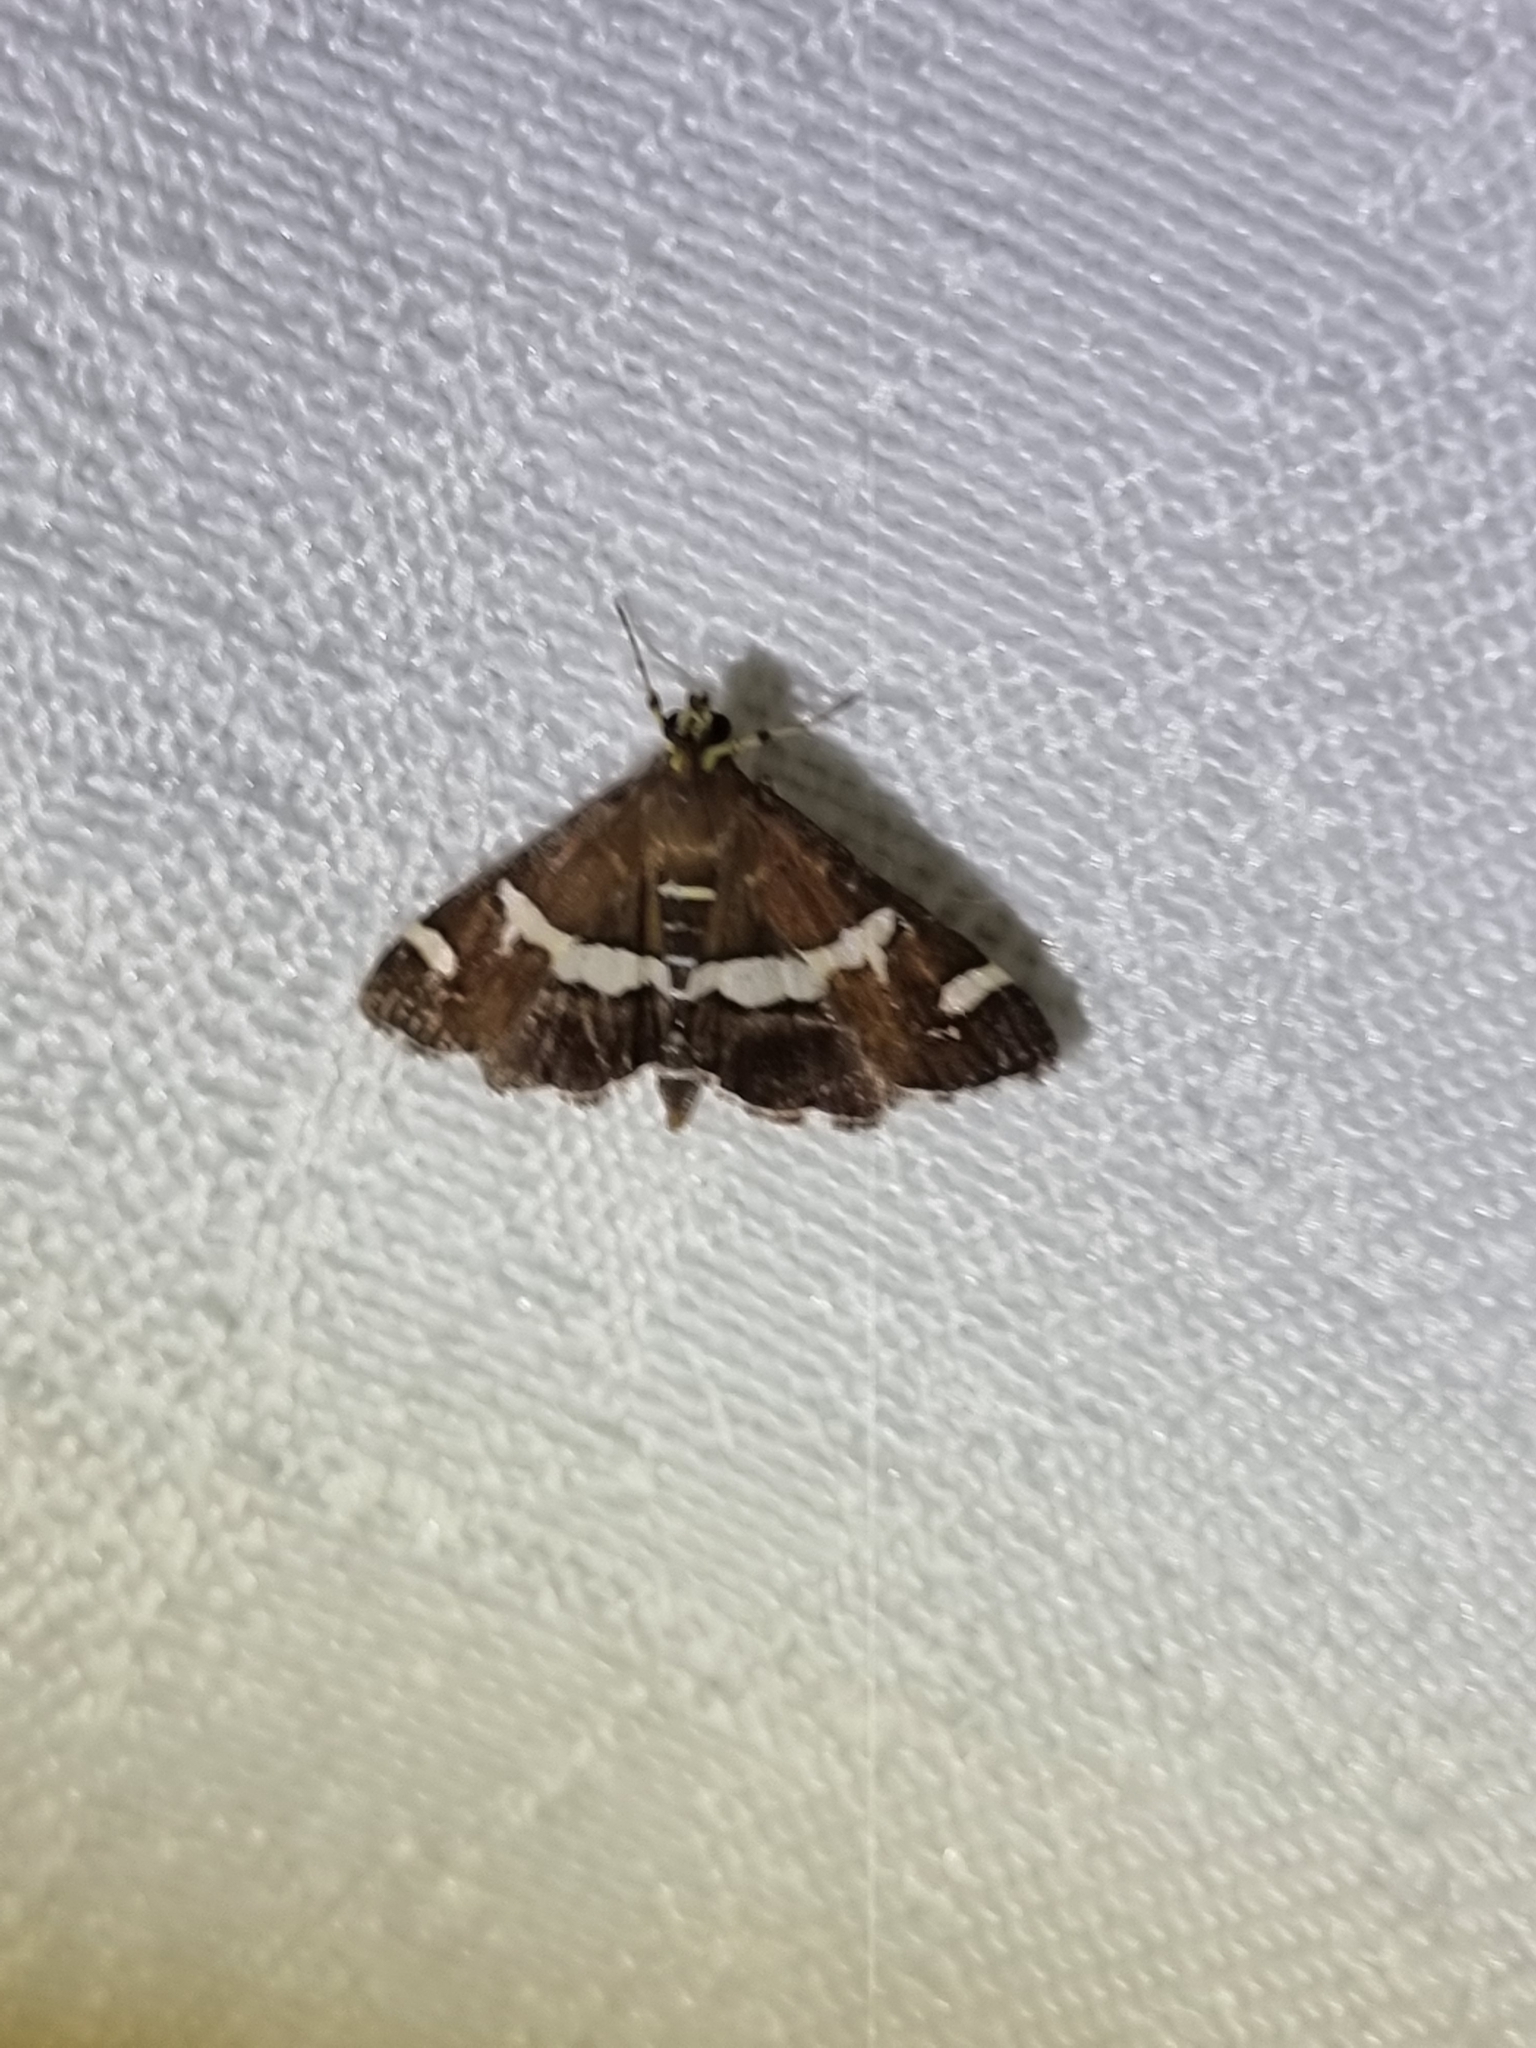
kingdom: Animalia
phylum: Arthropoda
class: Insecta
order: Lepidoptera
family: Crambidae
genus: Spoladea
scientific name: Spoladea recurvalis
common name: Beet webworm moth
